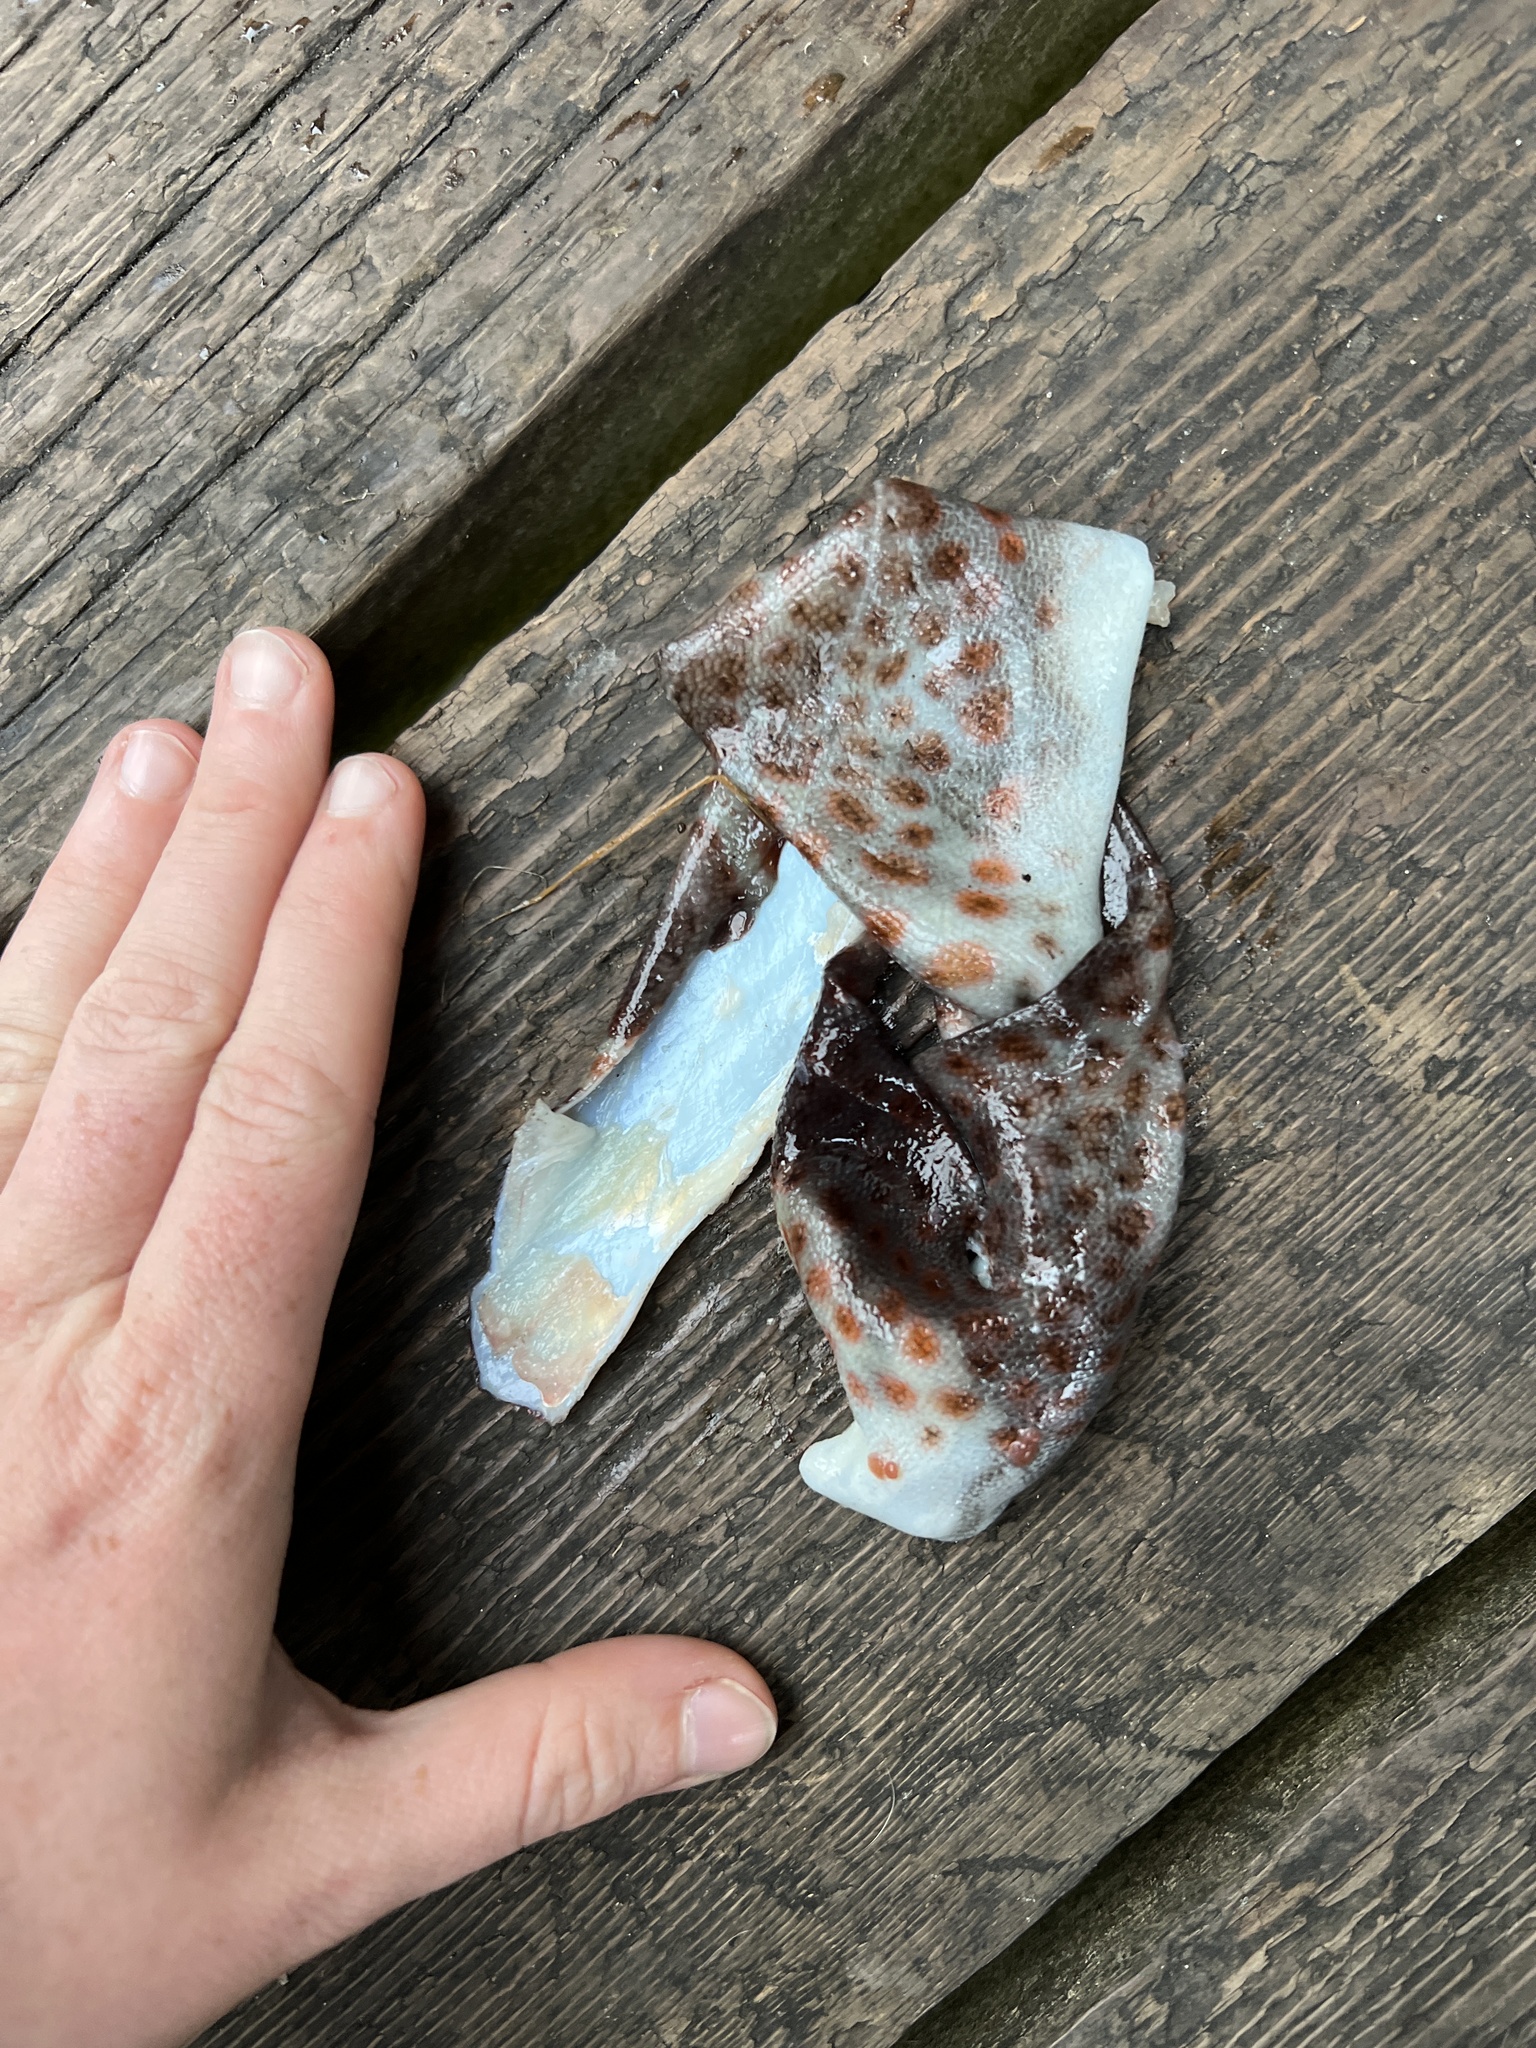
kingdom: Animalia
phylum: Chordata
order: Scorpaeniformes
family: Hexagrammidae
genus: Ophiodon
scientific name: Ophiodon elongatus
